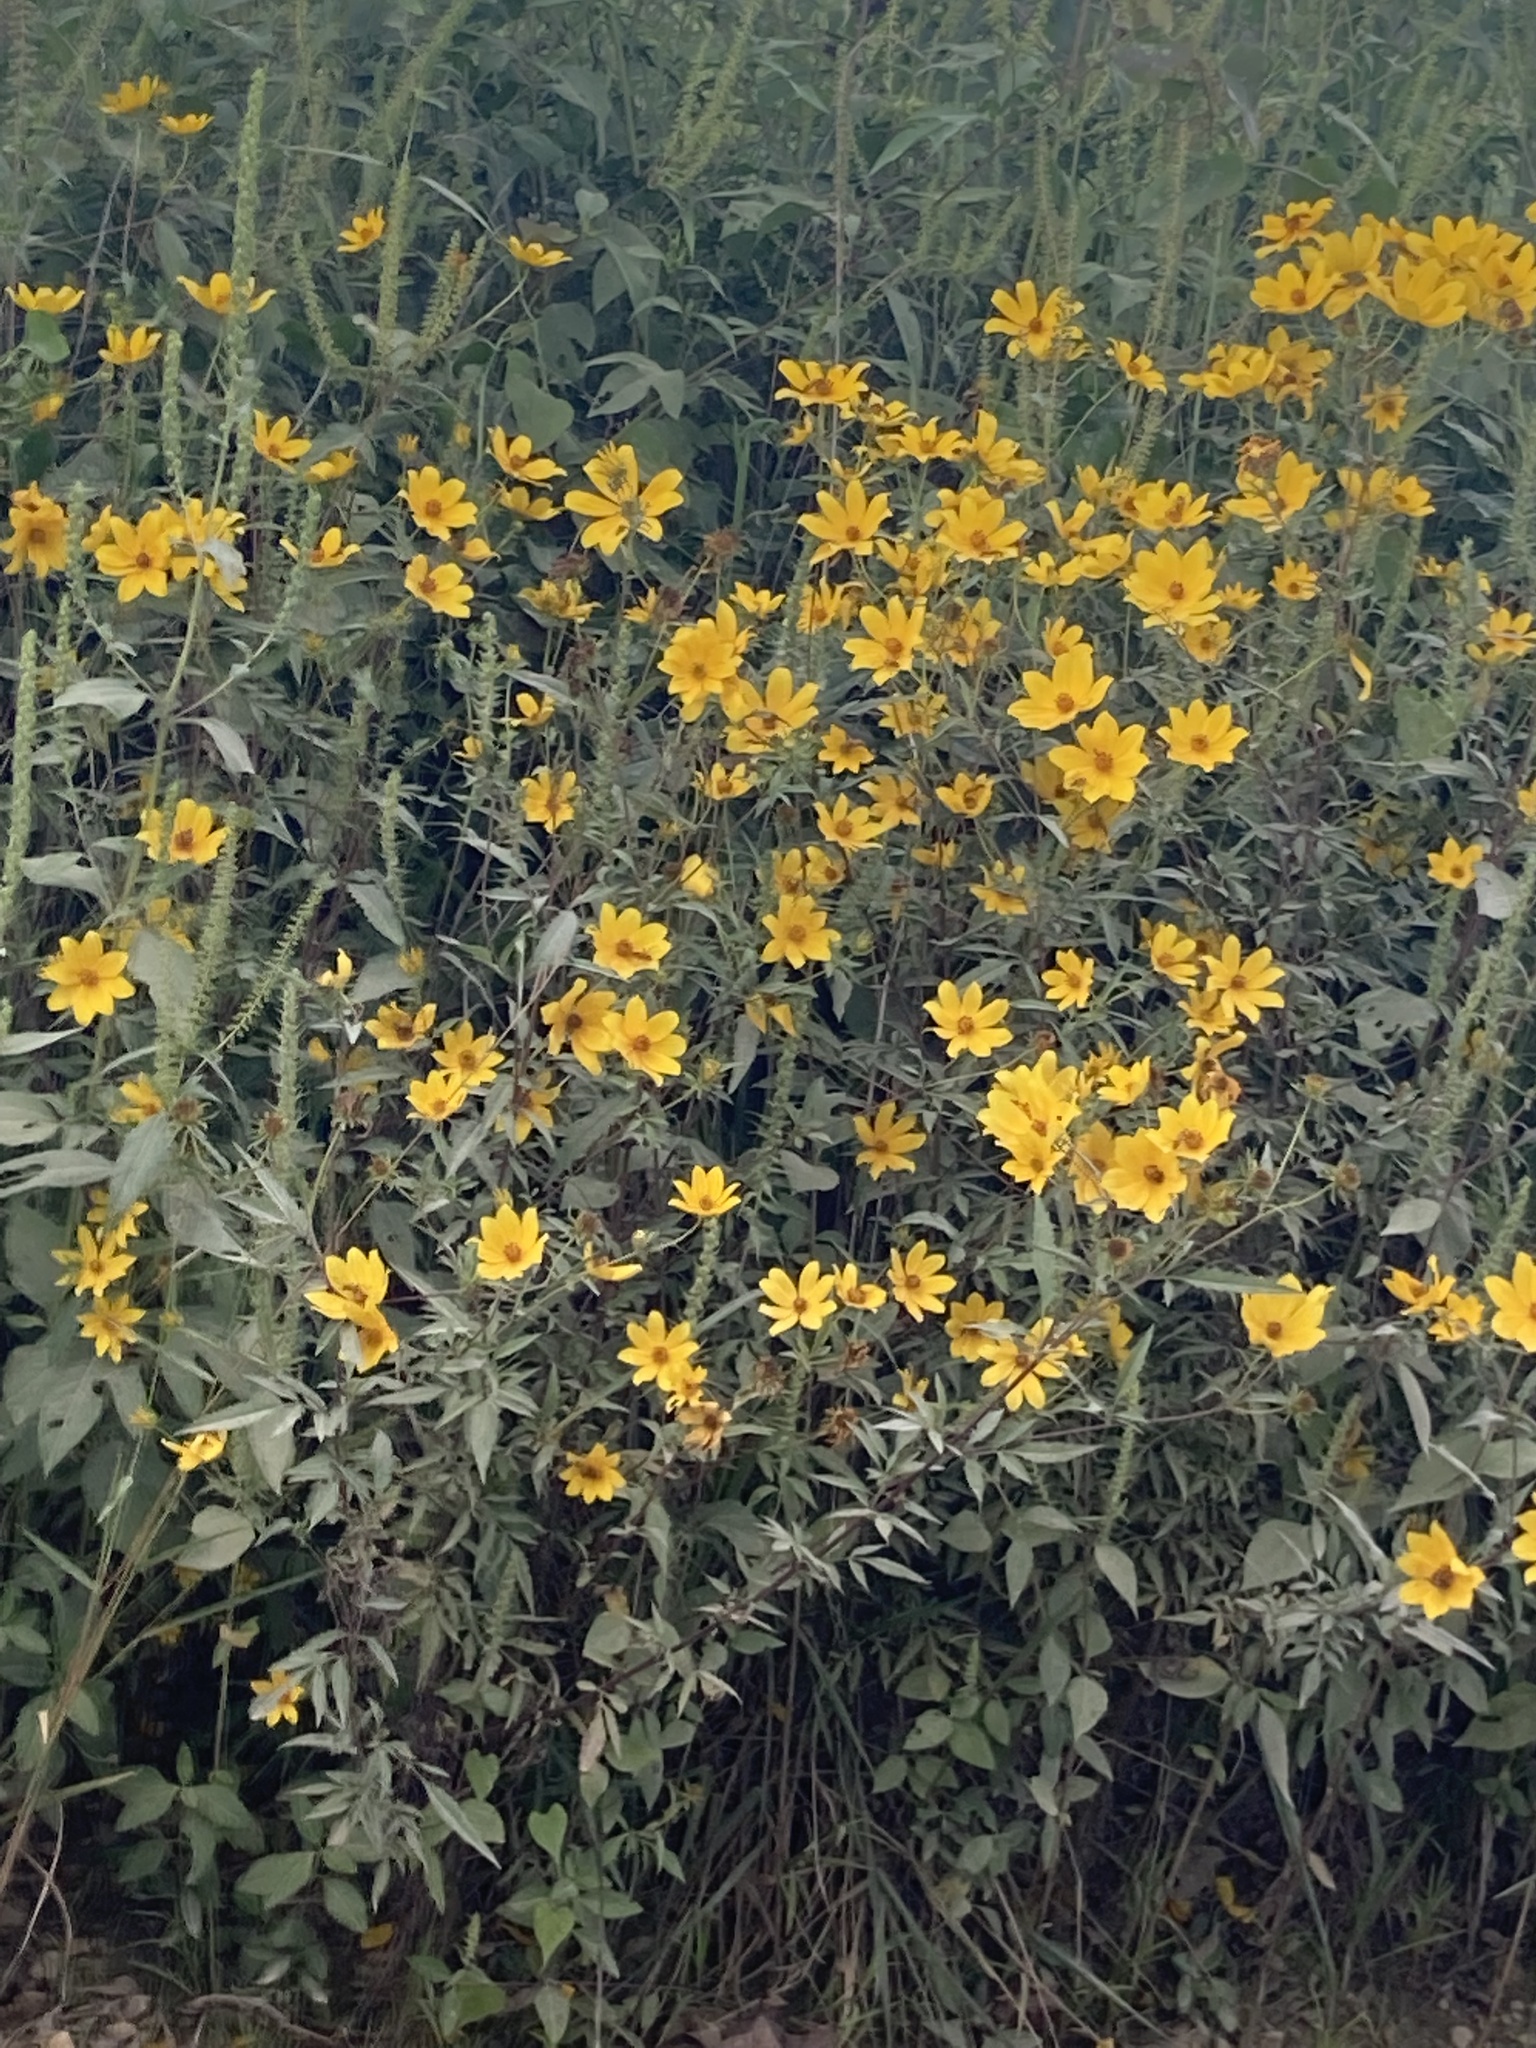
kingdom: Plantae
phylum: Tracheophyta
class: Magnoliopsida
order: Asterales
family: Asteraceae
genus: Coreopsis
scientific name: Coreopsis tripteris
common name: Tall coreopsis
